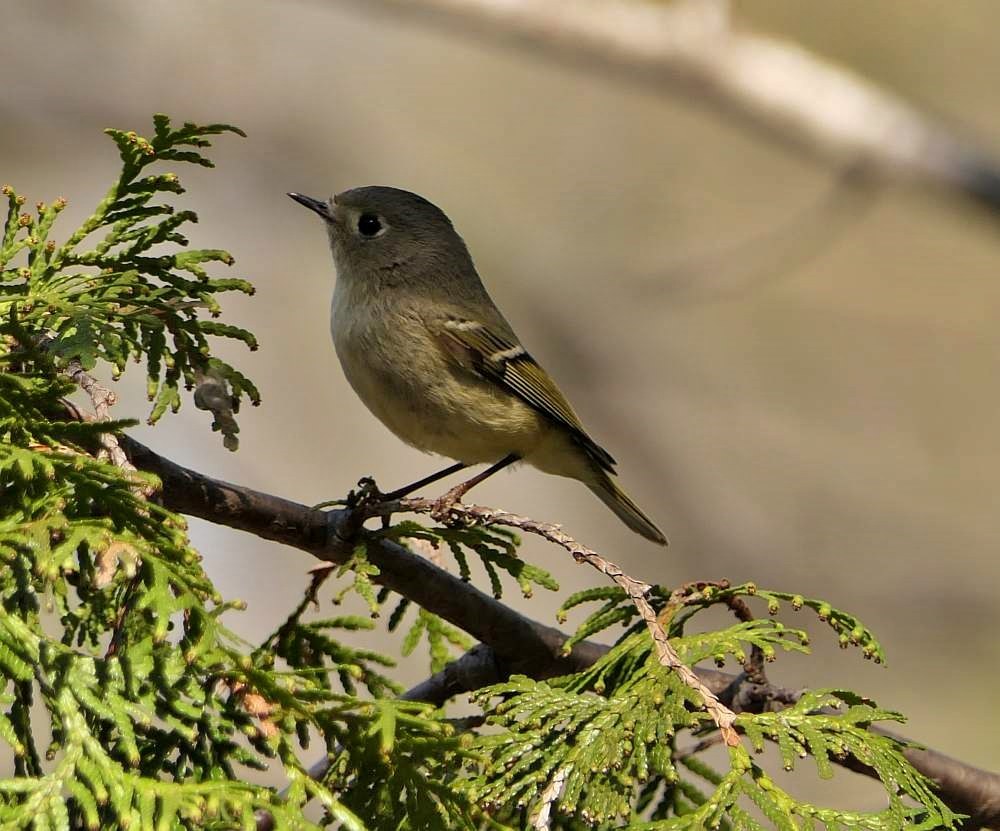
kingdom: Animalia
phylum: Chordata
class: Aves
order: Passeriformes
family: Regulidae
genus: Regulus
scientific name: Regulus calendula
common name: Ruby-crowned kinglet
